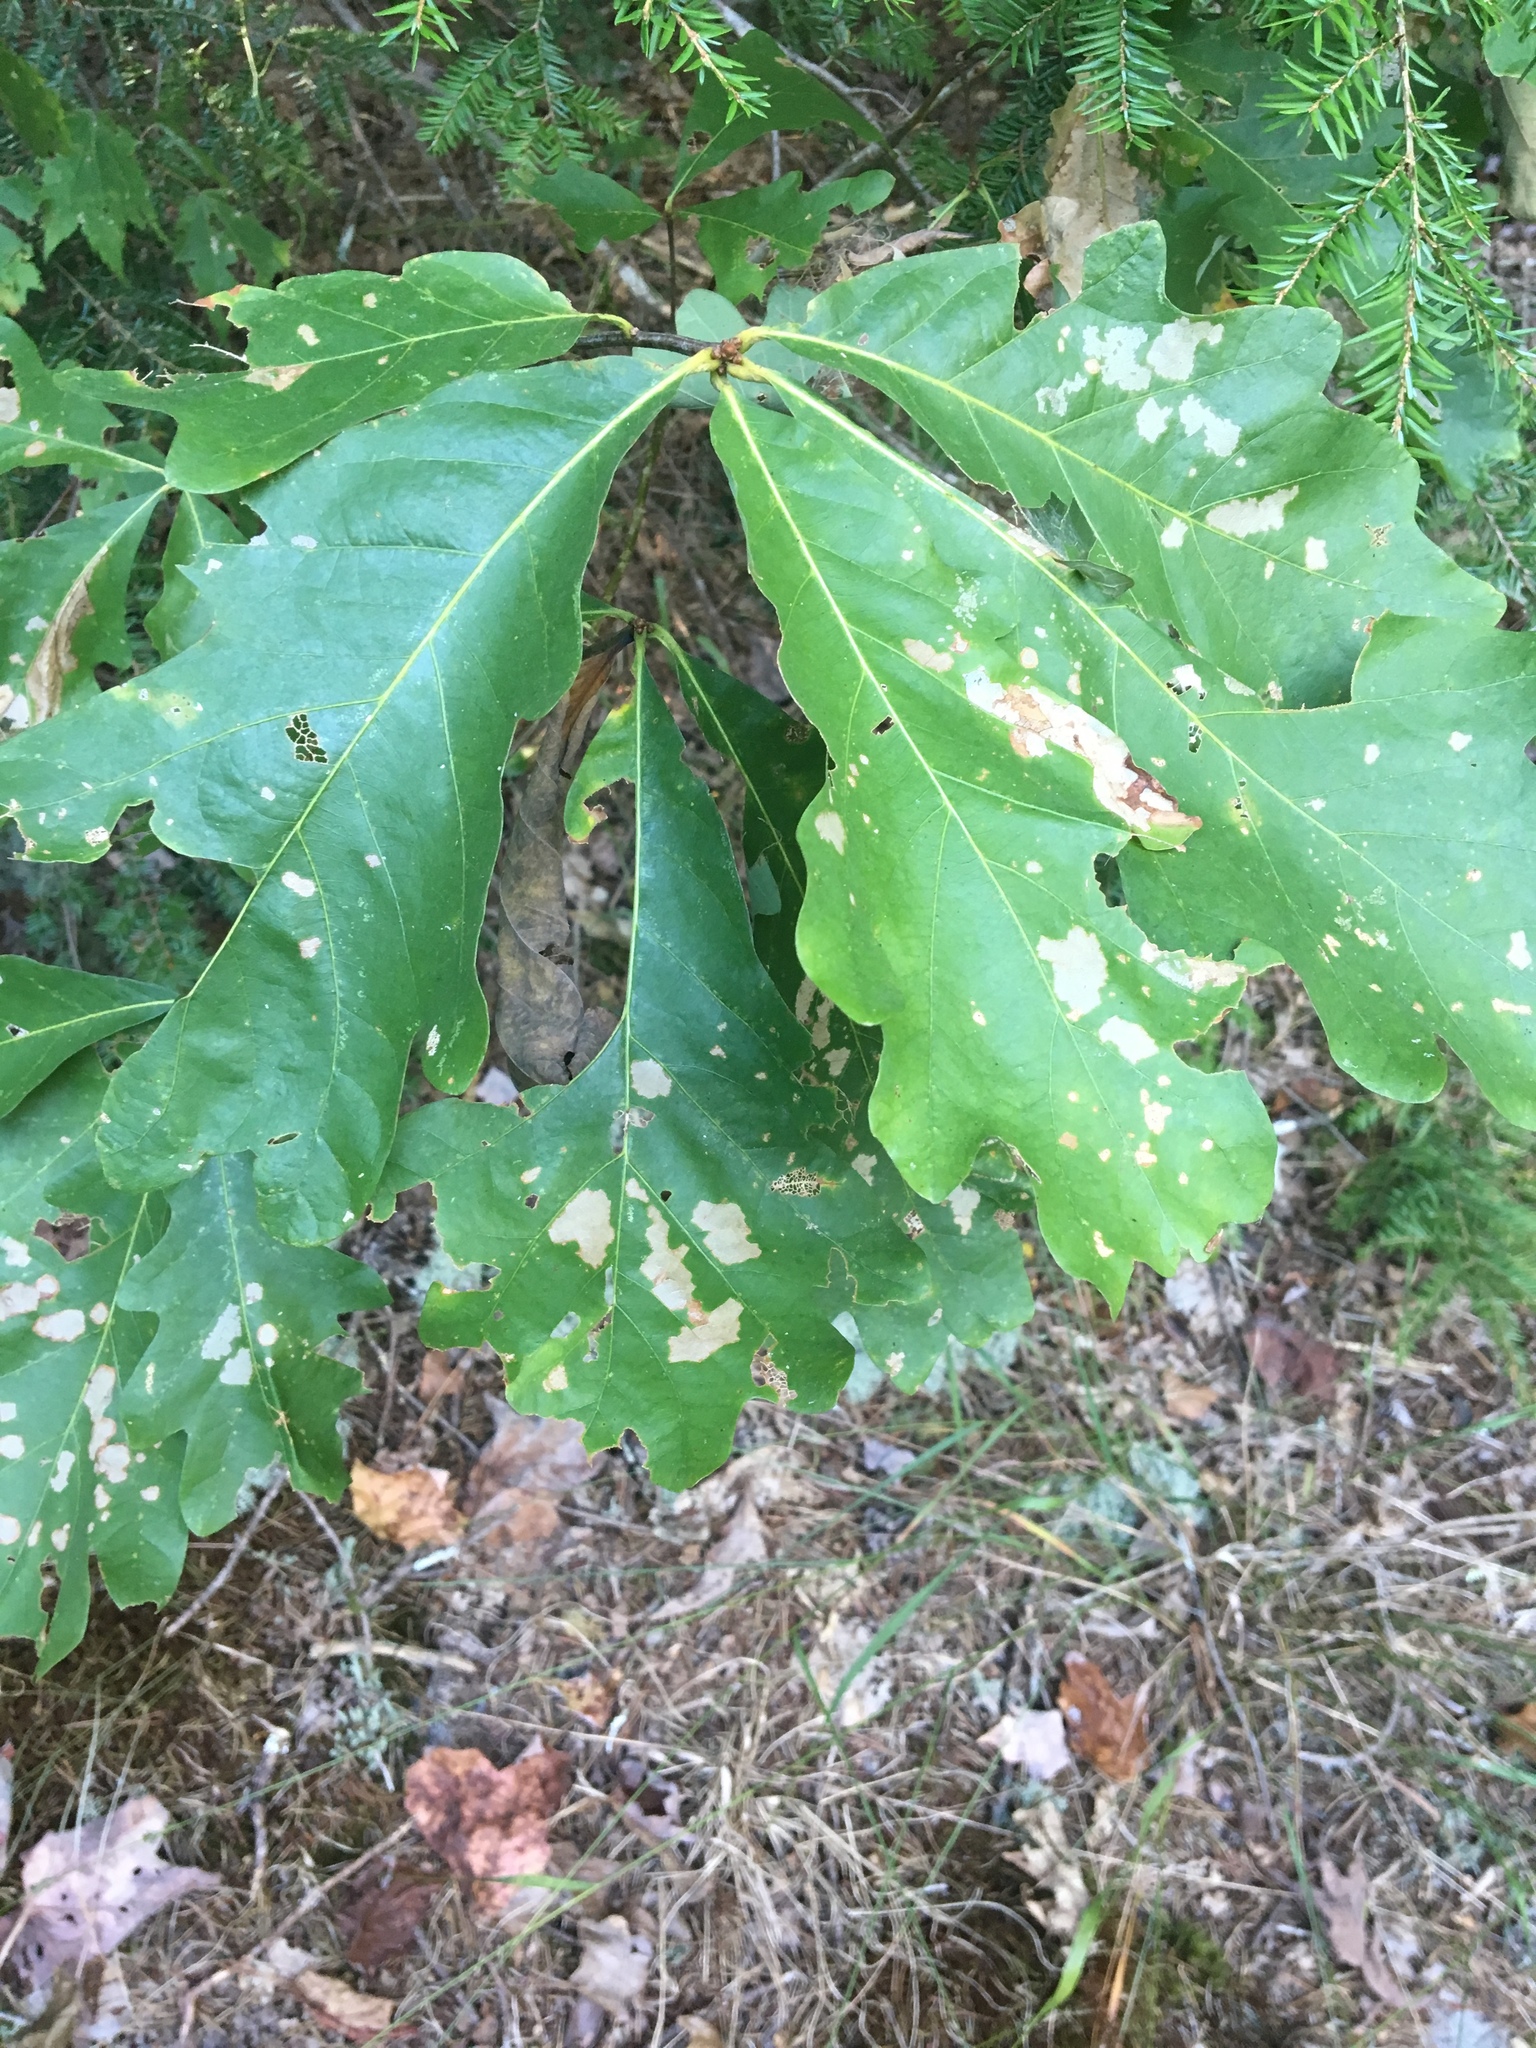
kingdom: Plantae
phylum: Tracheophyta
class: Magnoliopsida
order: Fagales
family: Fagaceae
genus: Quercus
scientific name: Quercus alba
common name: White oak
